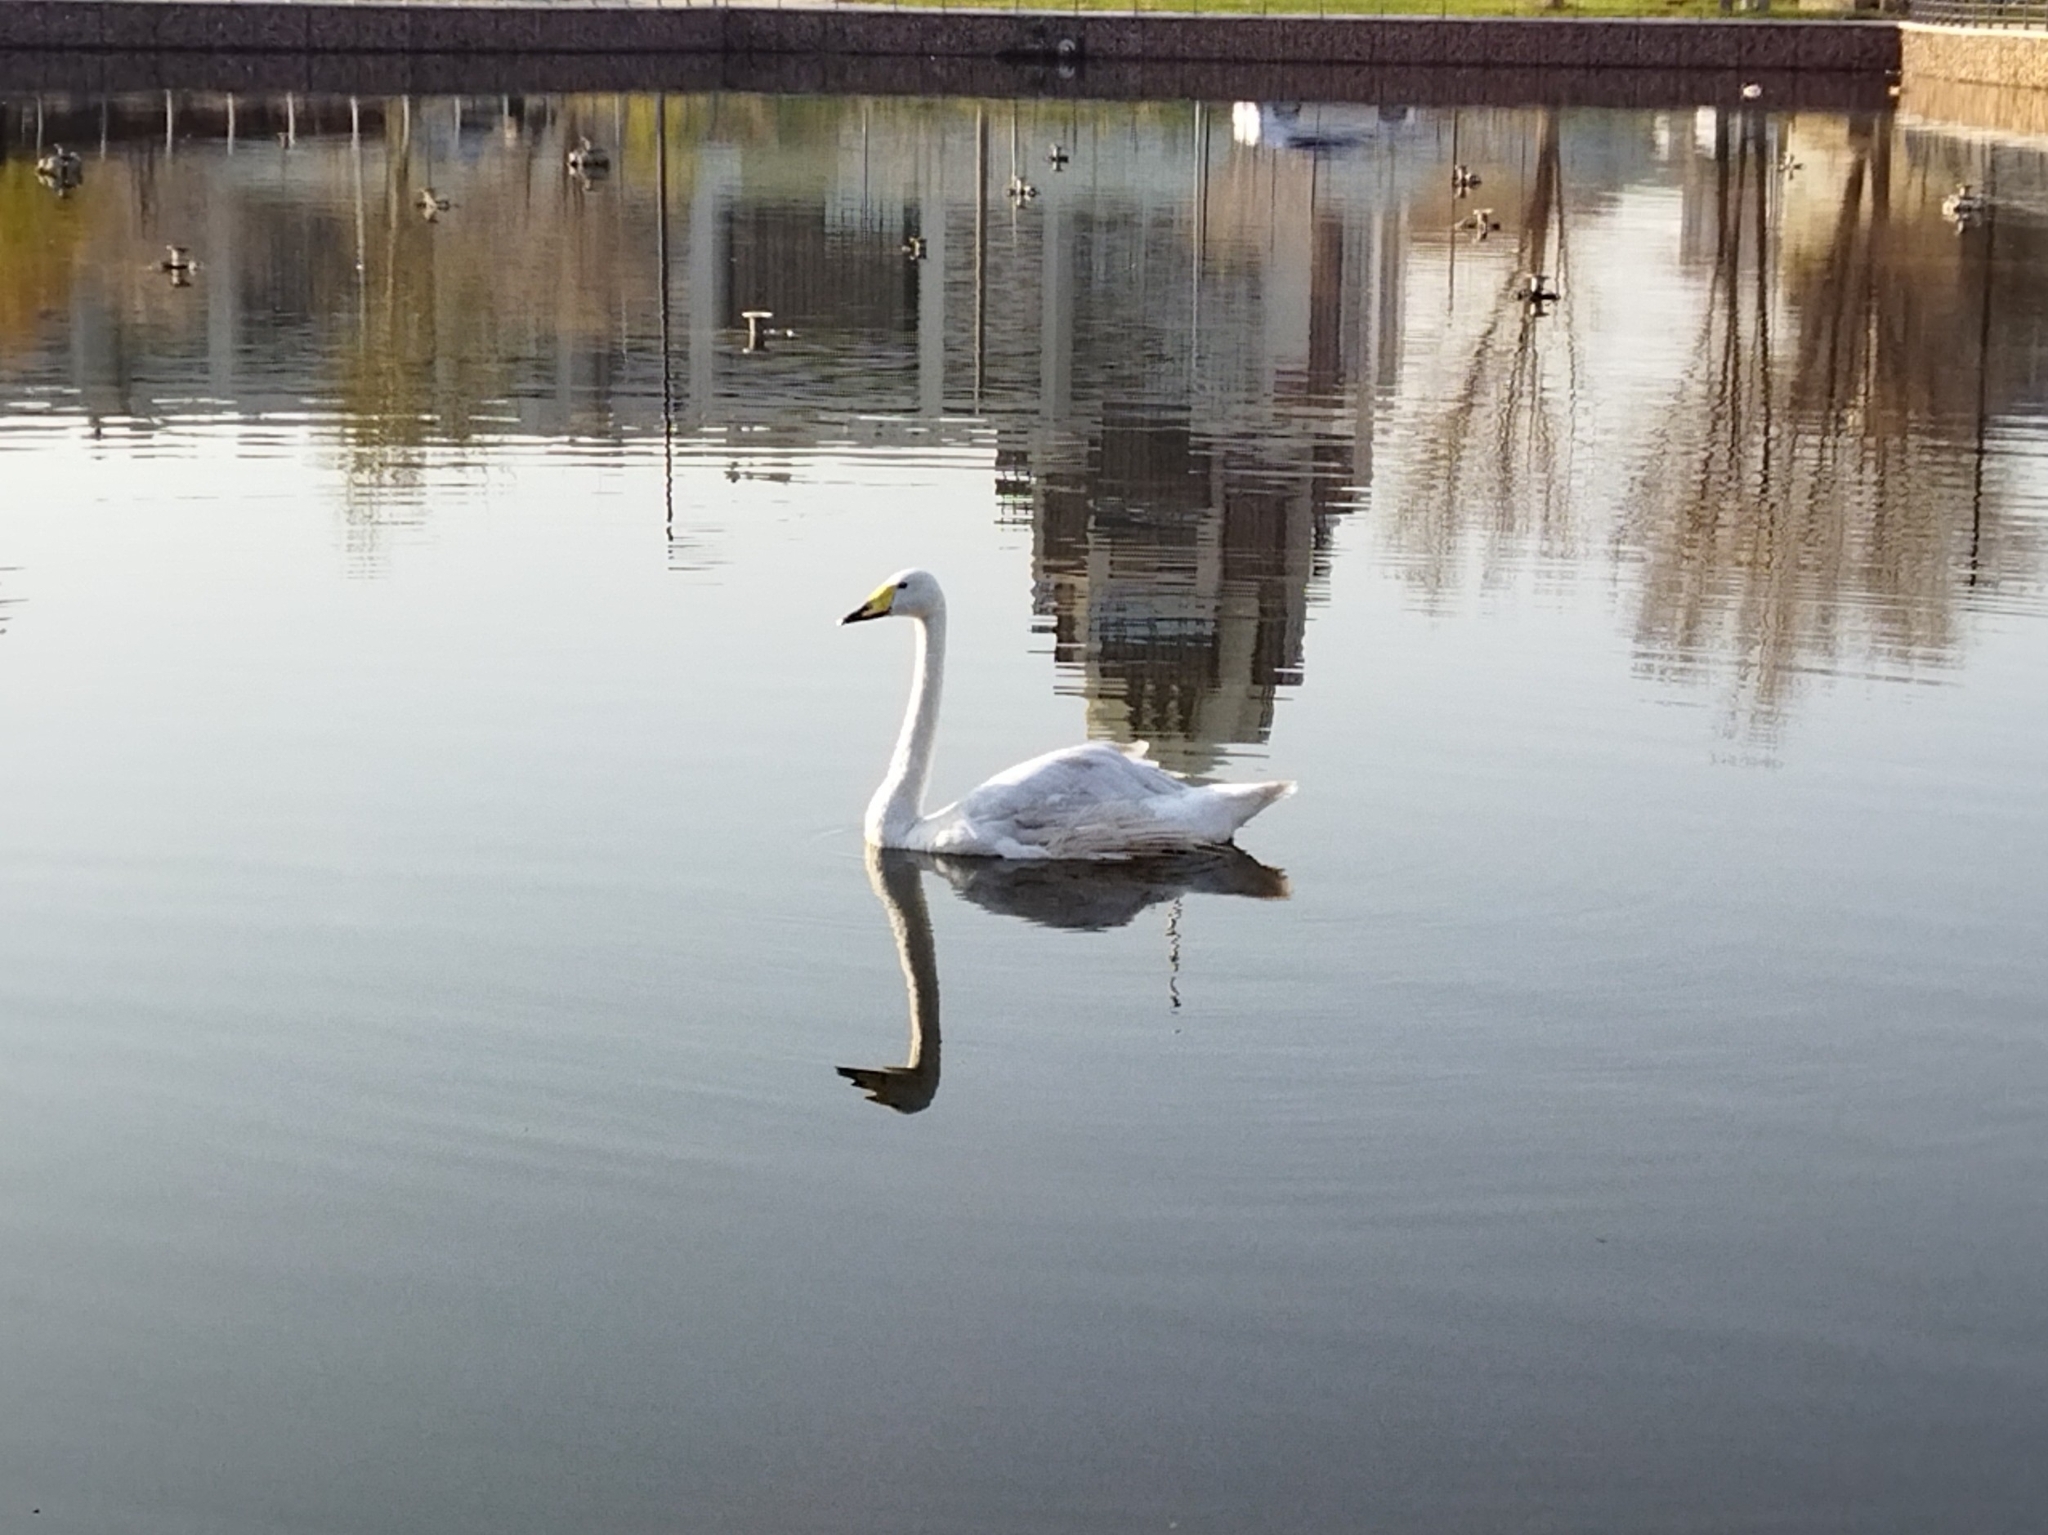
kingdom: Animalia
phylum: Chordata
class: Aves
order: Anseriformes
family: Anatidae
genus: Cygnus
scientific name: Cygnus cygnus
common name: Whooper swan
